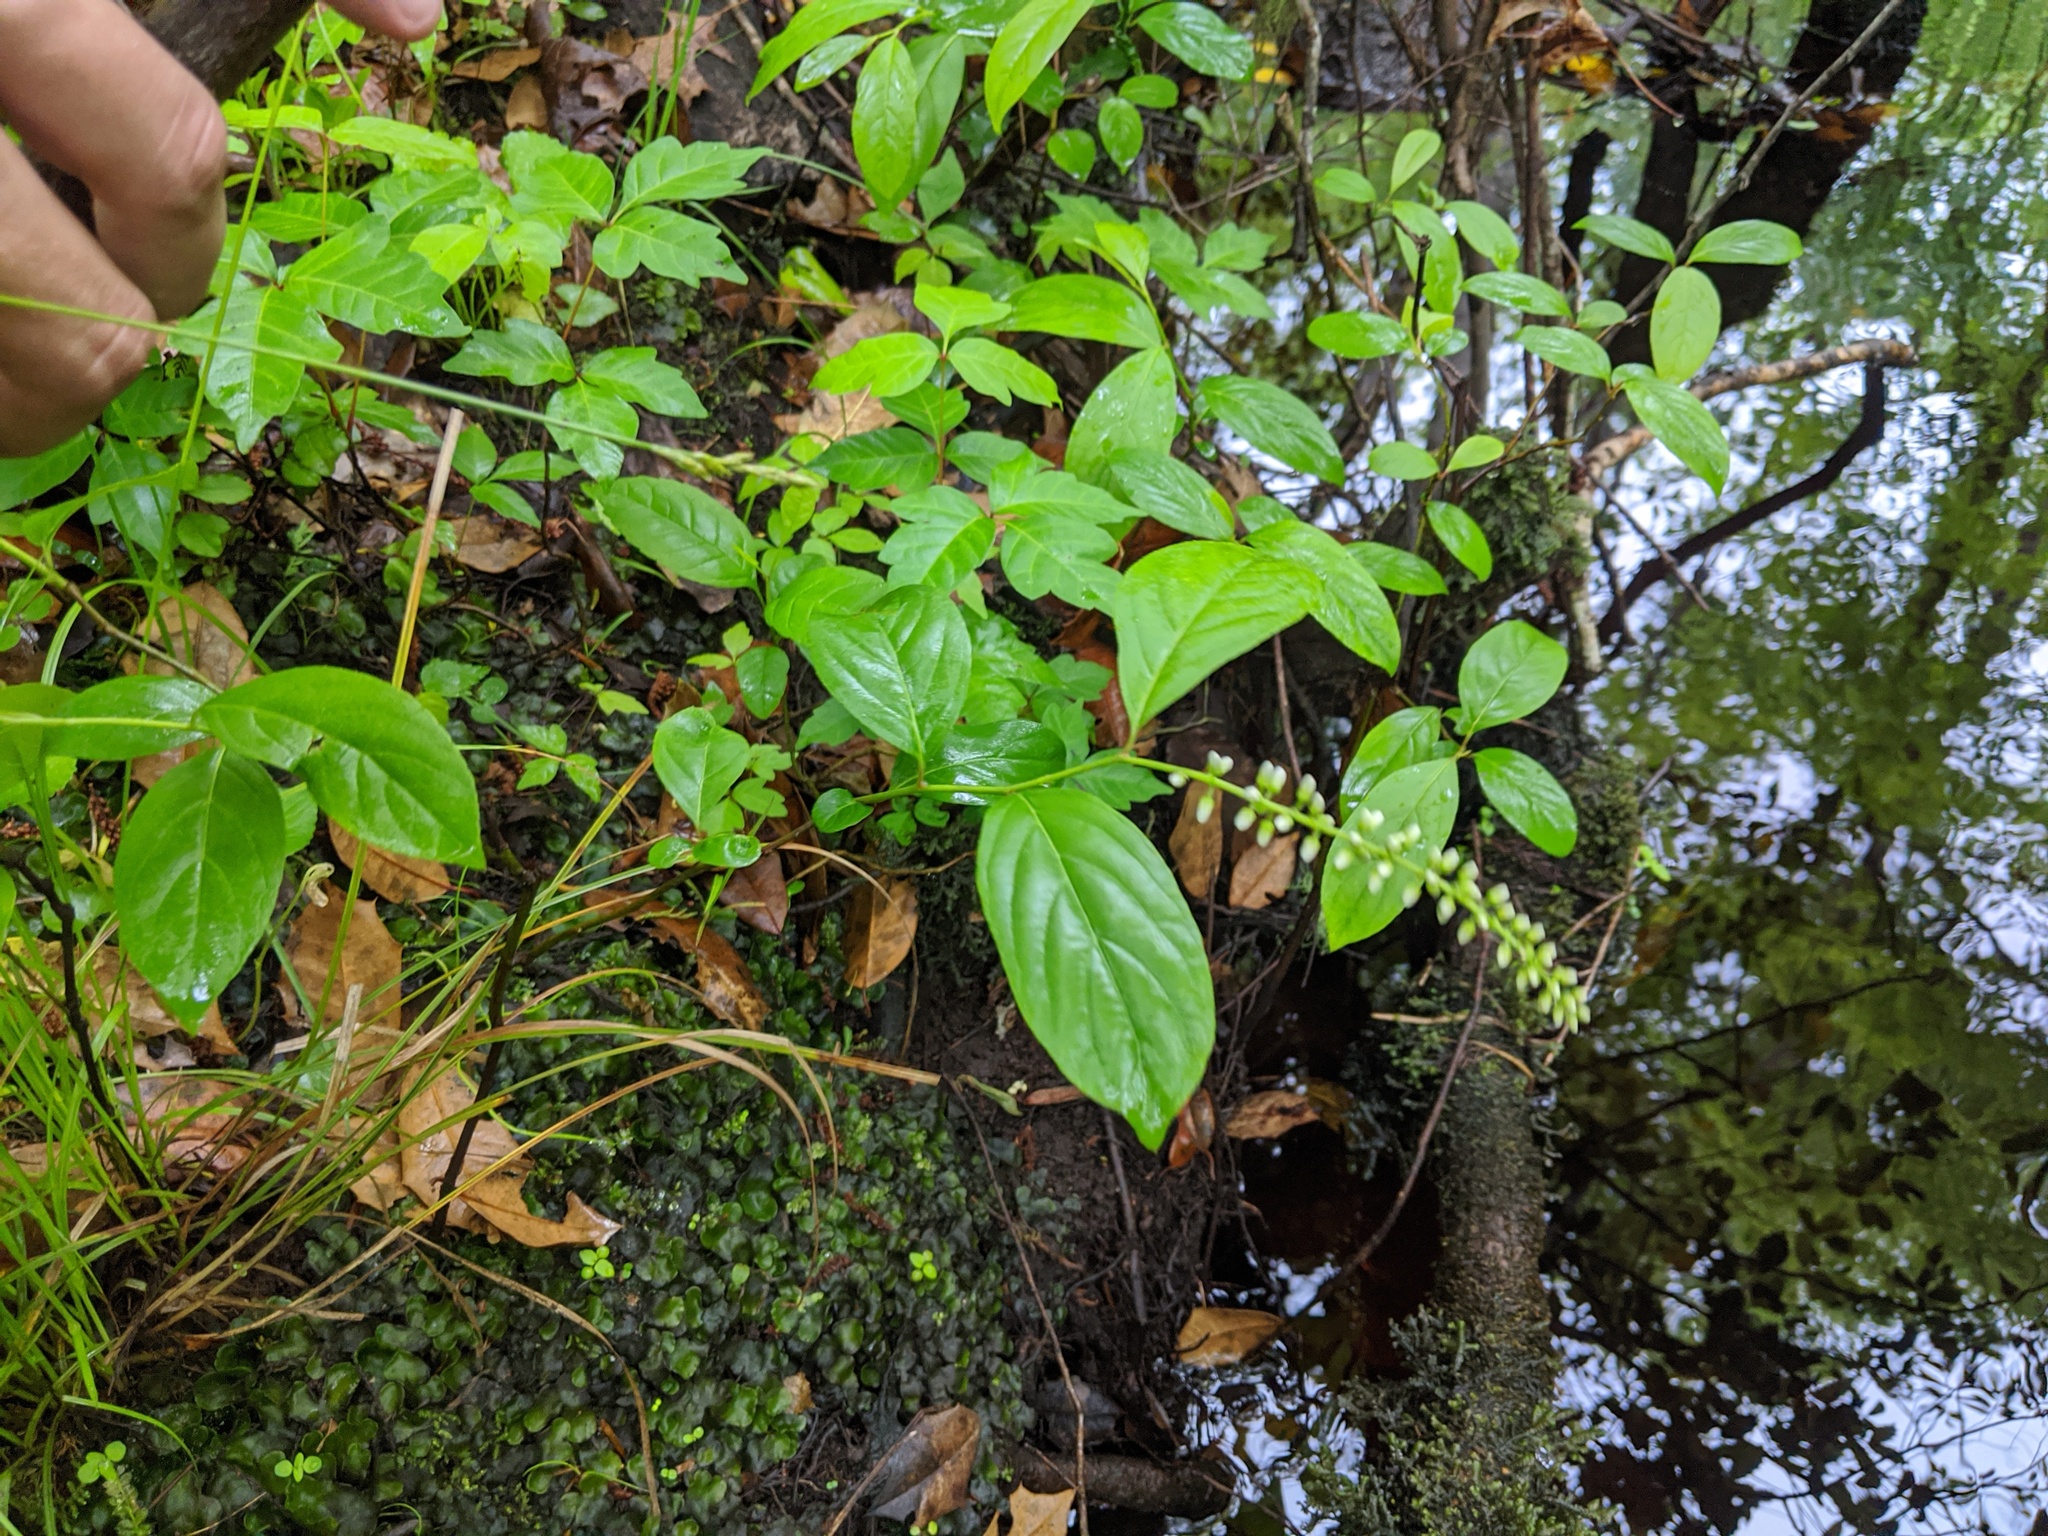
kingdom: Plantae
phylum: Tracheophyta
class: Magnoliopsida
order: Saxifragales
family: Iteaceae
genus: Itea
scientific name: Itea virginica
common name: Sweetspire
